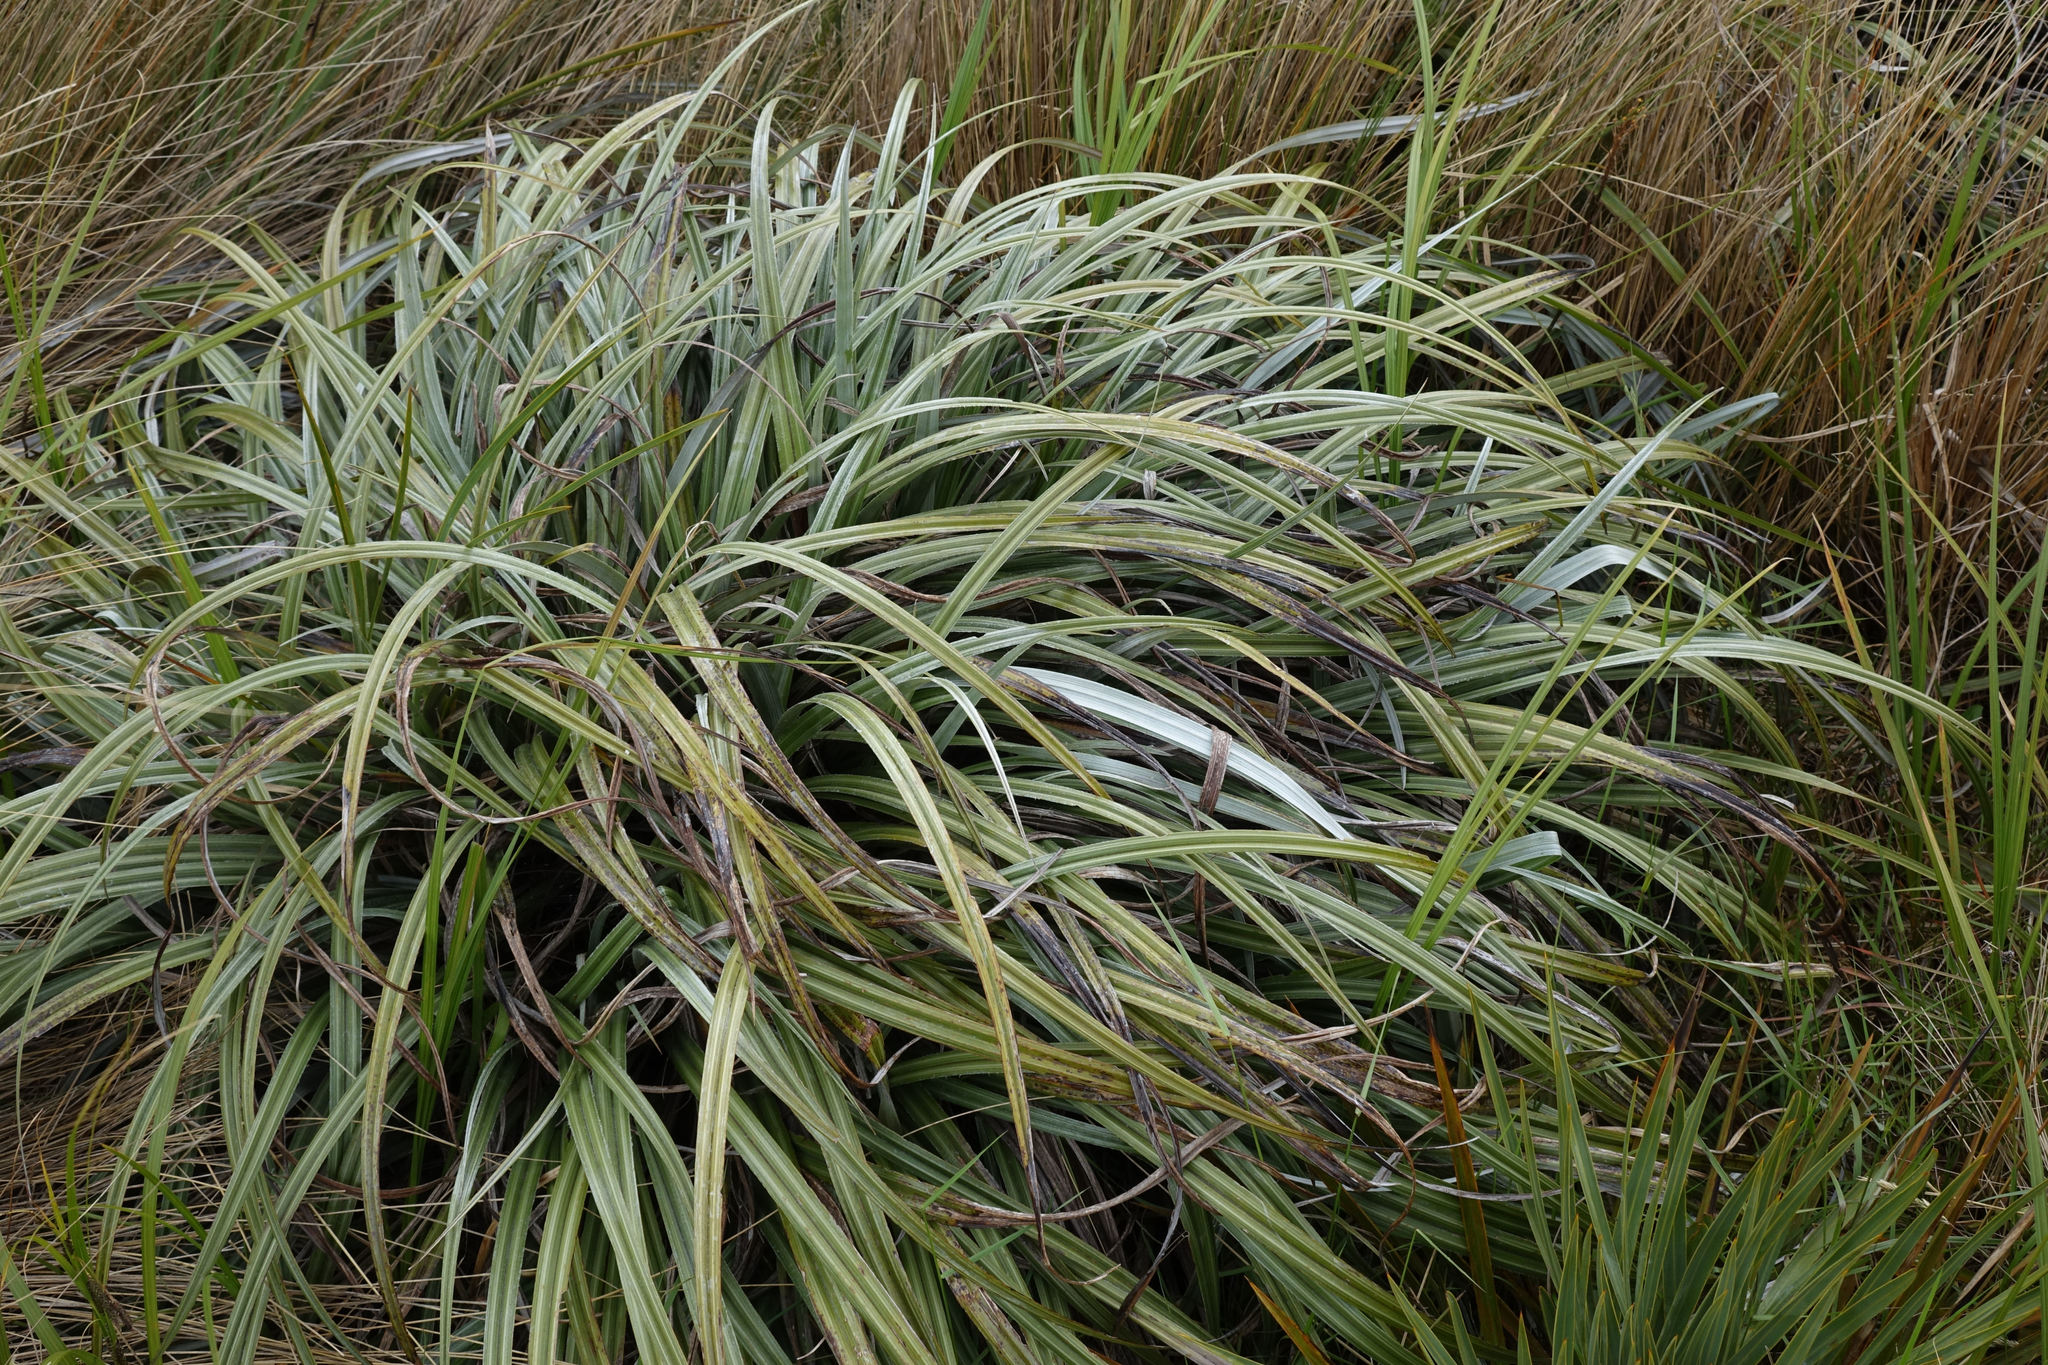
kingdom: Plantae
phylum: Tracheophyta
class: Liliopsida
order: Asparagales
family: Asteliaceae
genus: Astelia
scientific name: Astelia nervosa
